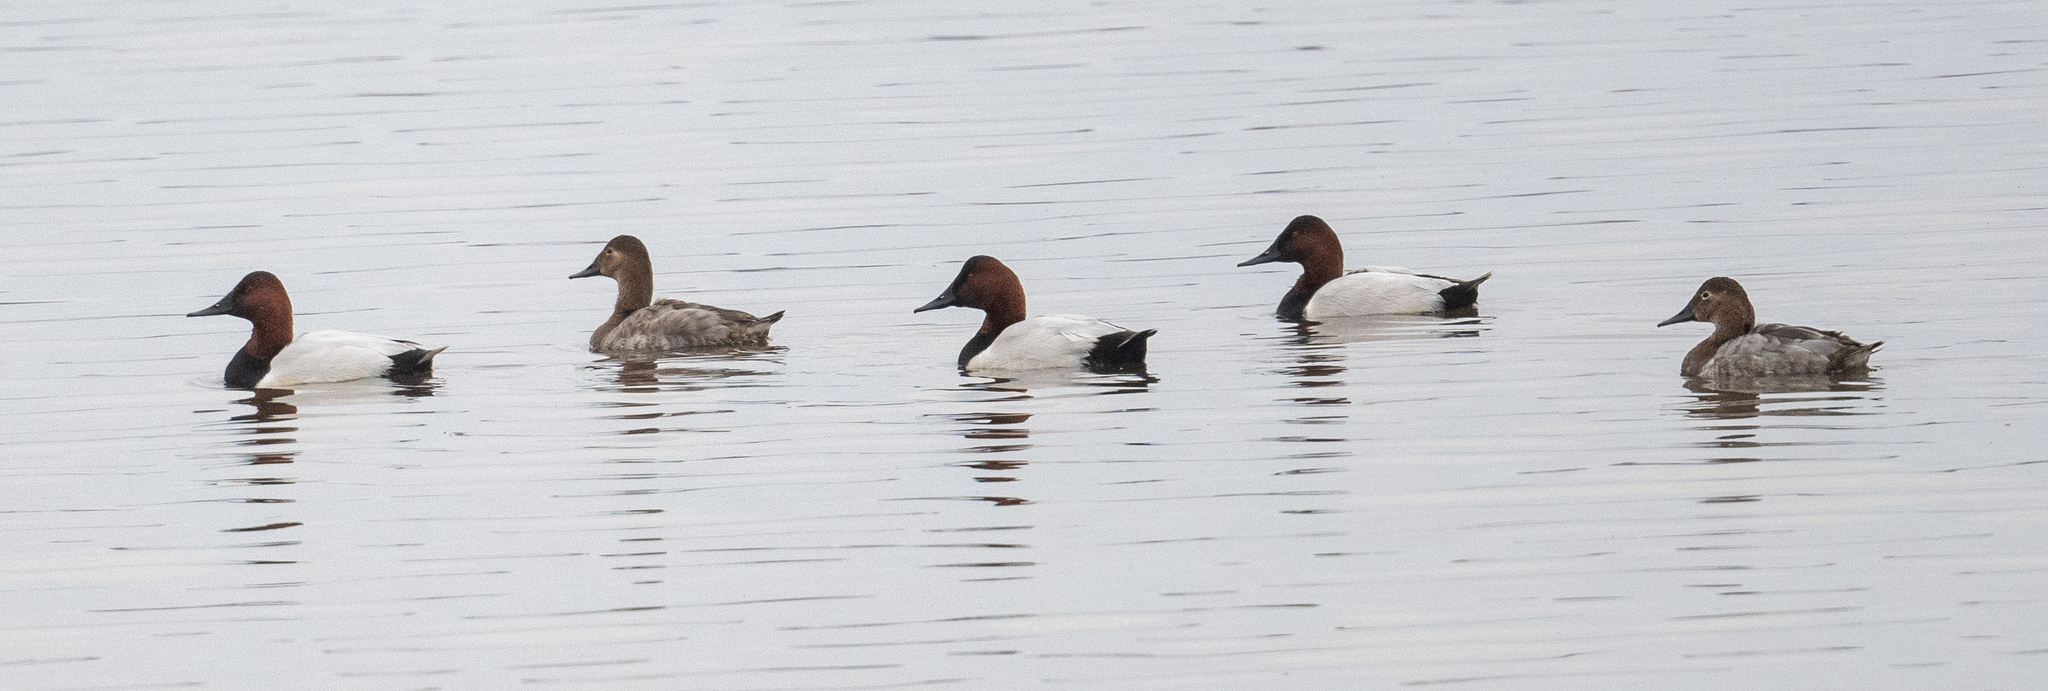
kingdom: Animalia
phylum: Chordata
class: Aves
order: Anseriformes
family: Anatidae
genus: Aythya
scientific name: Aythya valisineria
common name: Canvasback
